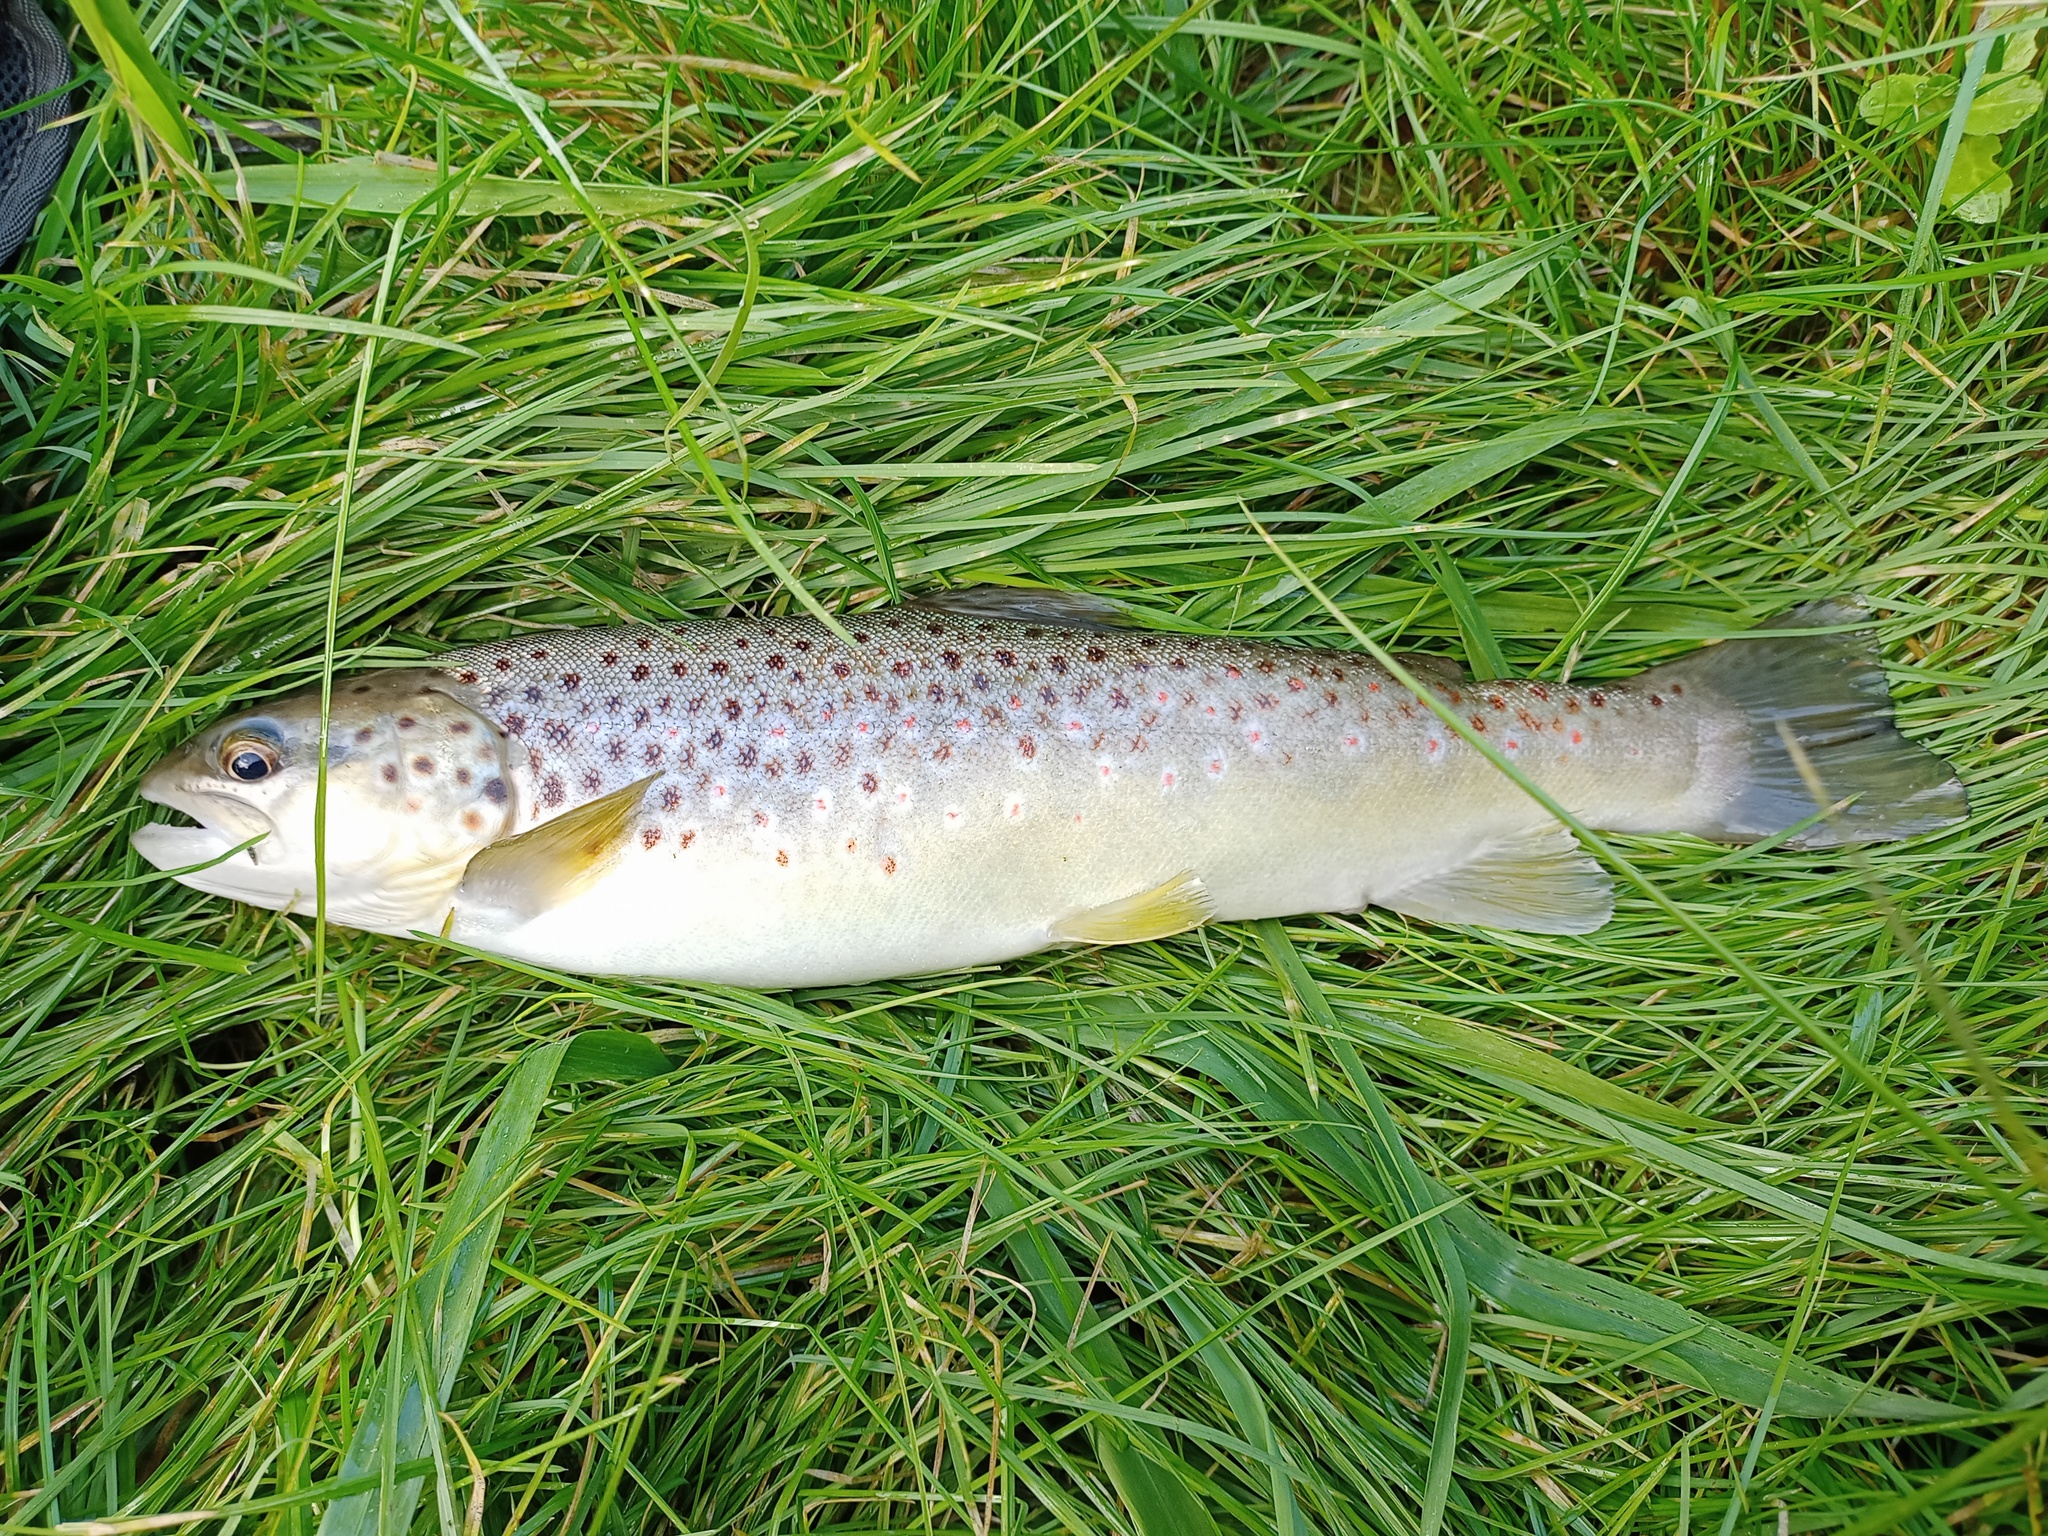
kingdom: Animalia
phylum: Chordata
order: Salmoniformes
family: Salmonidae
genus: Salmo
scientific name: Salmo trutta
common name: Brown trout
